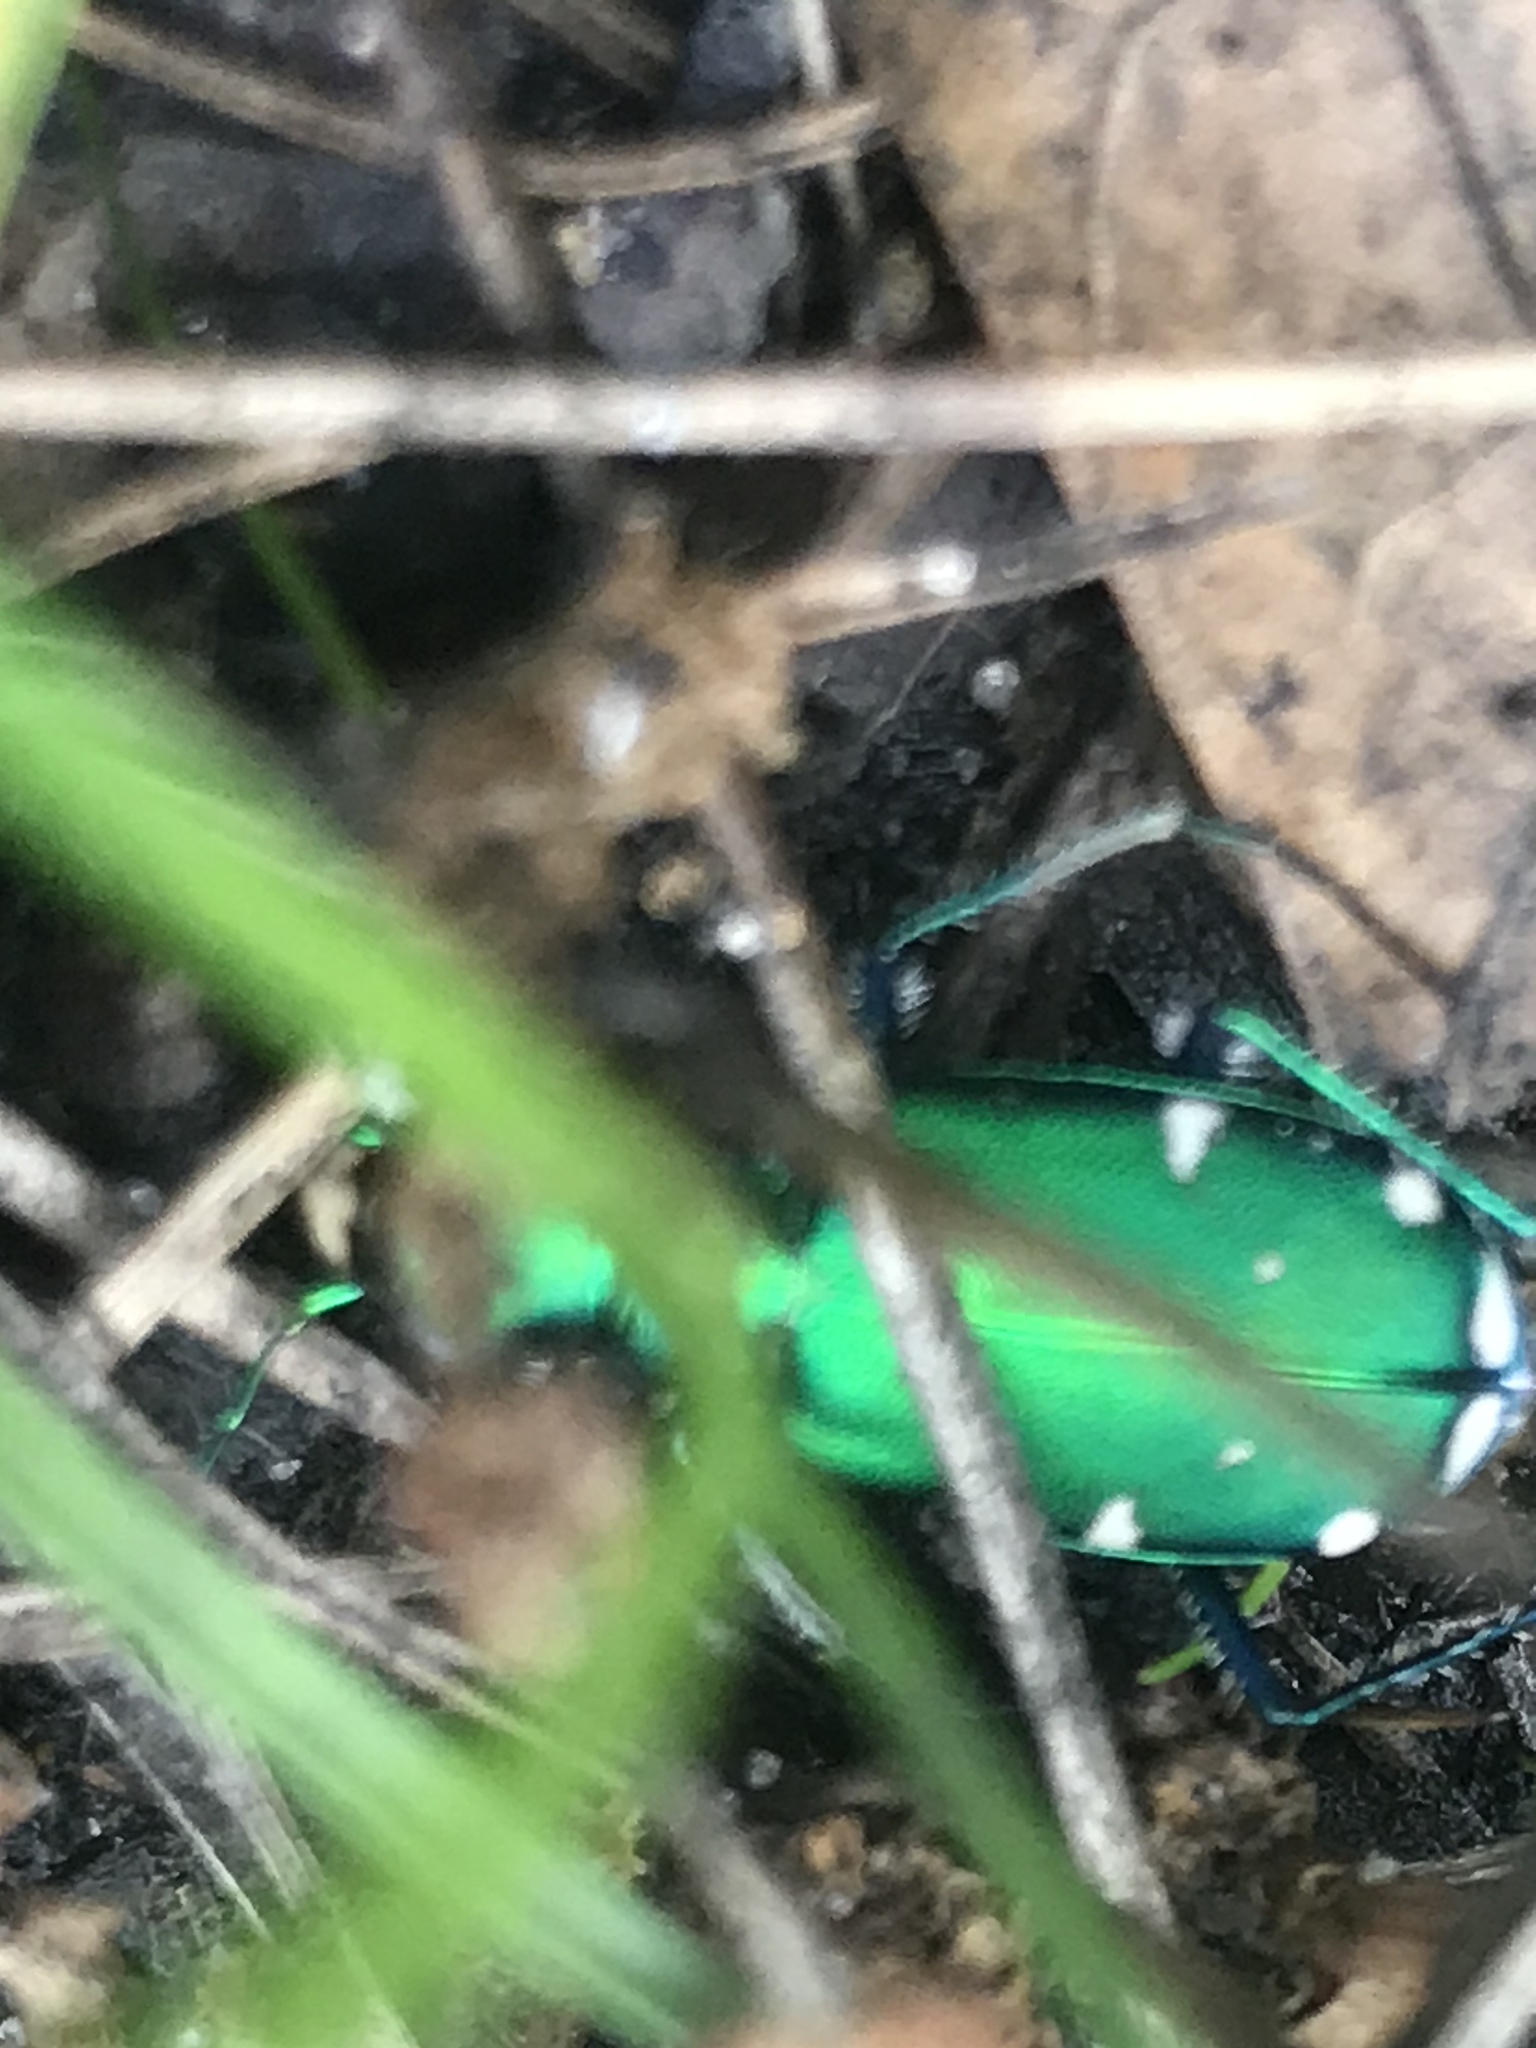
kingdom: Animalia
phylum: Arthropoda
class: Insecta
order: Coleoptera
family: Carabidae
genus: Cicindela
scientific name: Cicindela sexguttata
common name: Six-spotted tiger beetle
